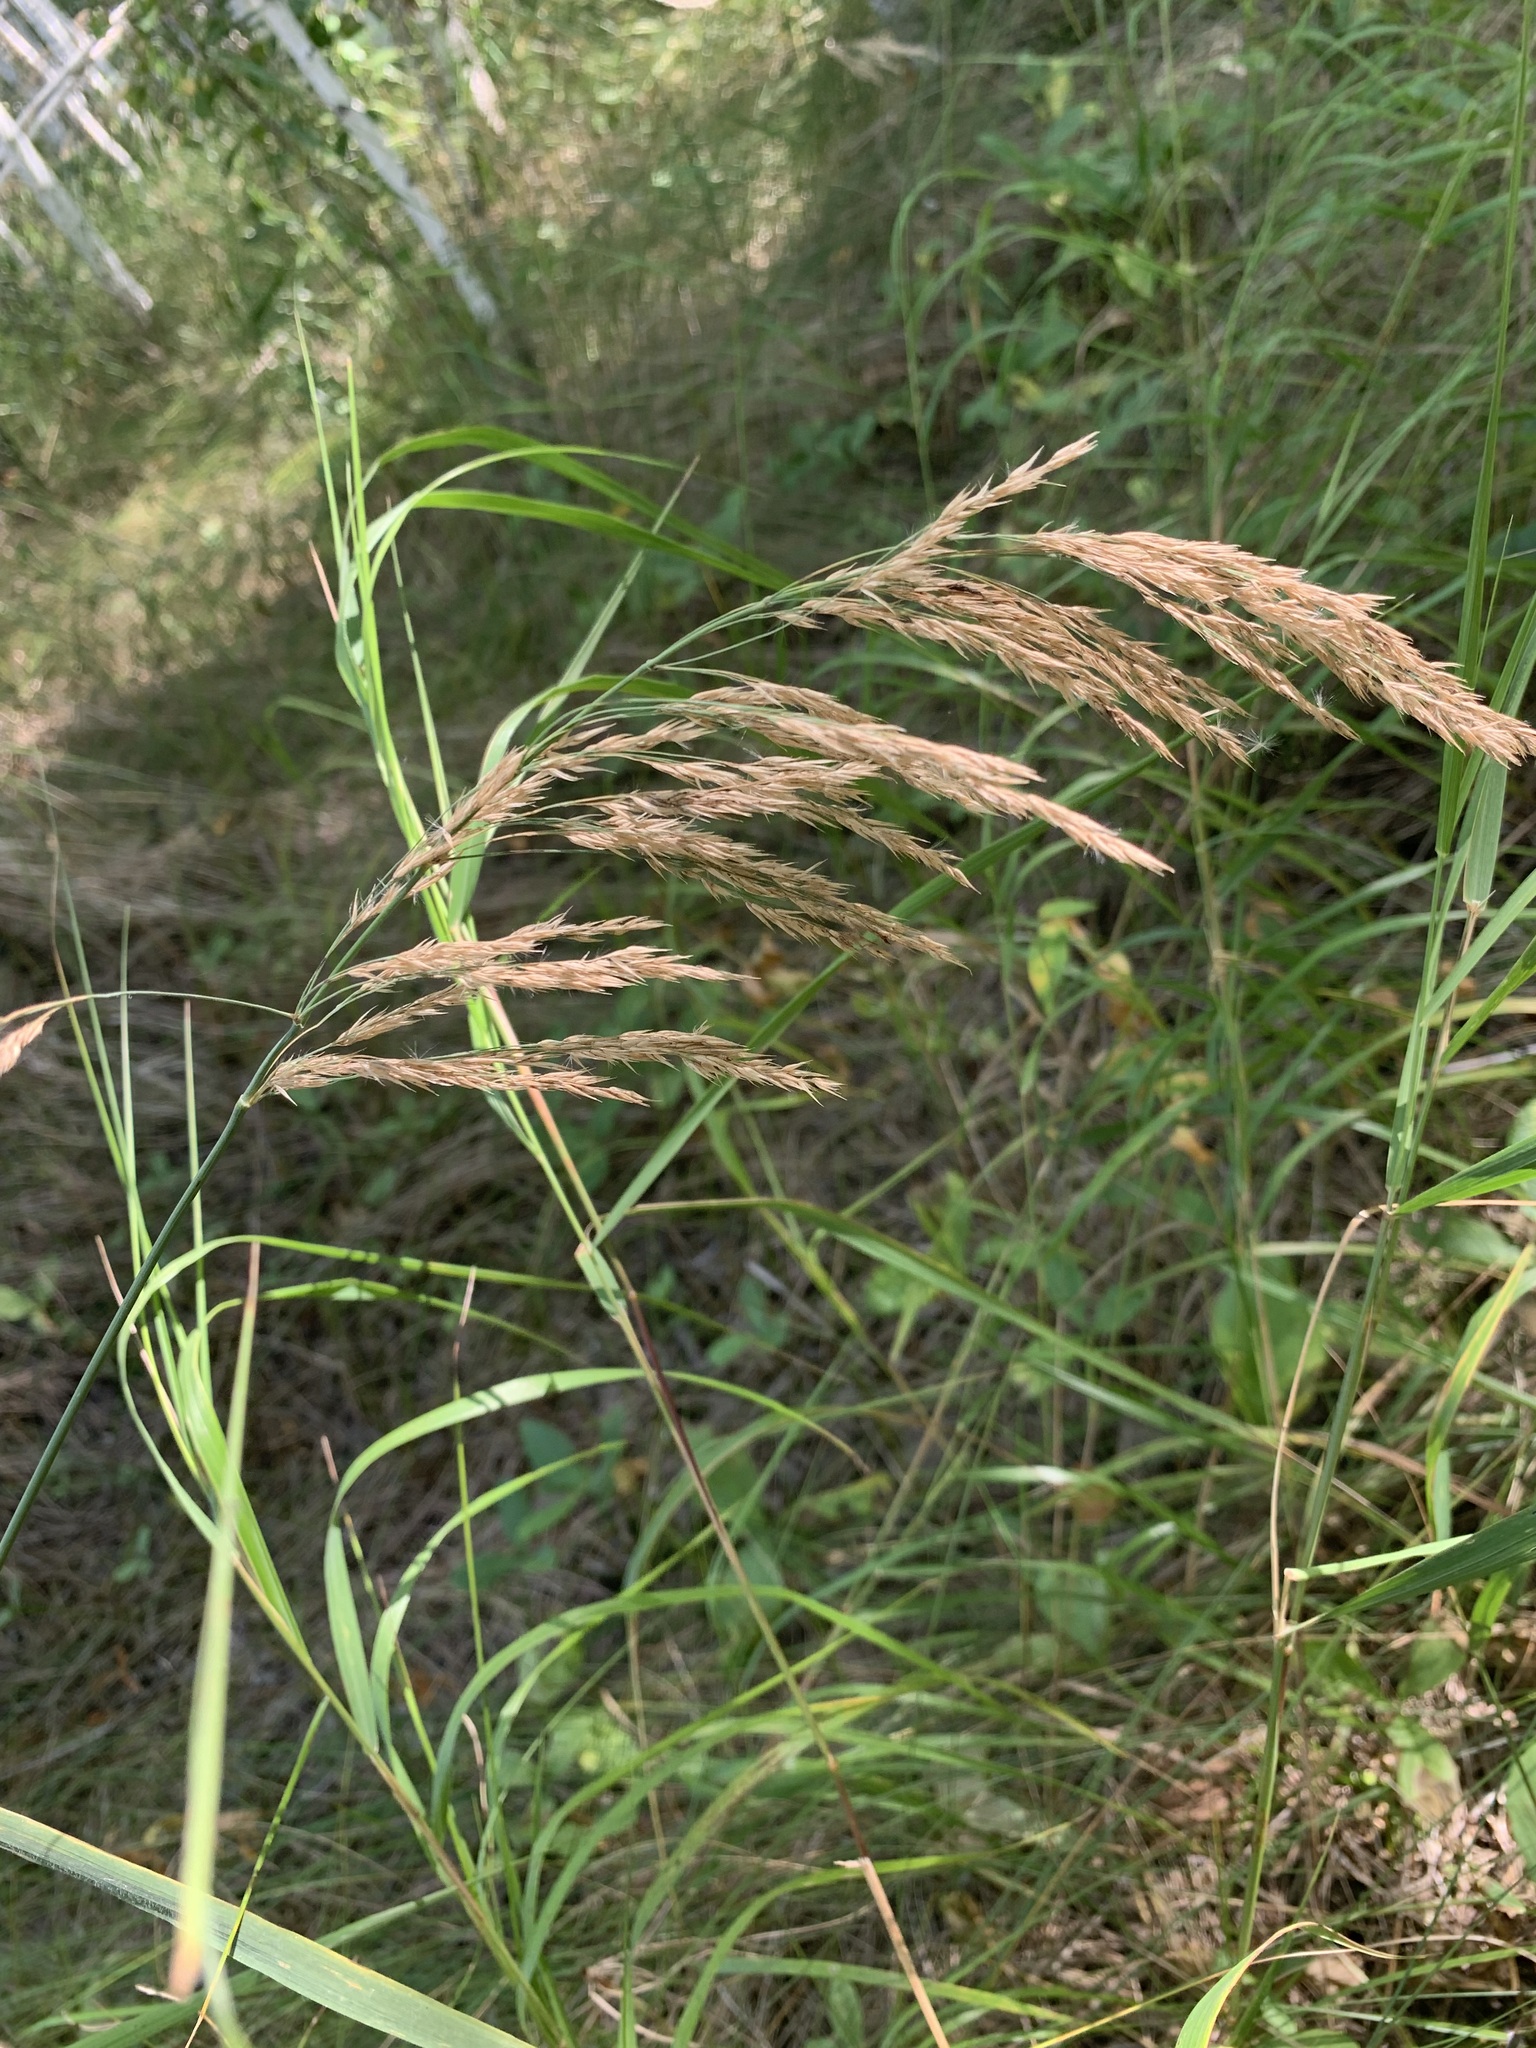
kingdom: Plantae
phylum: Tracheophyta
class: Liliopsida
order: Poales
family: Poaceae
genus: Calamagrostis
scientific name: Calamagrostis purpurea
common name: Scandinavian small-reed
